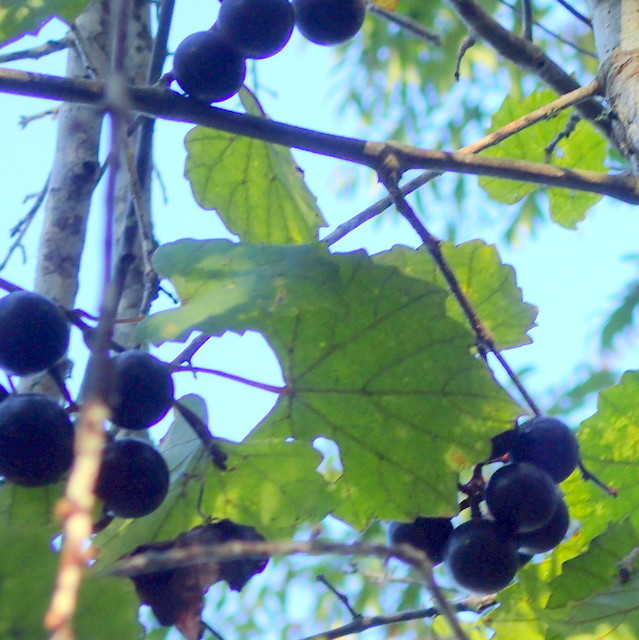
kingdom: Plantae
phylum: Tracheophyta
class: Magnoliopsida
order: Vitales
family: Vitaceae
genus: Vitis
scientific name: Vitis rotundifolia
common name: Muscadine grape
